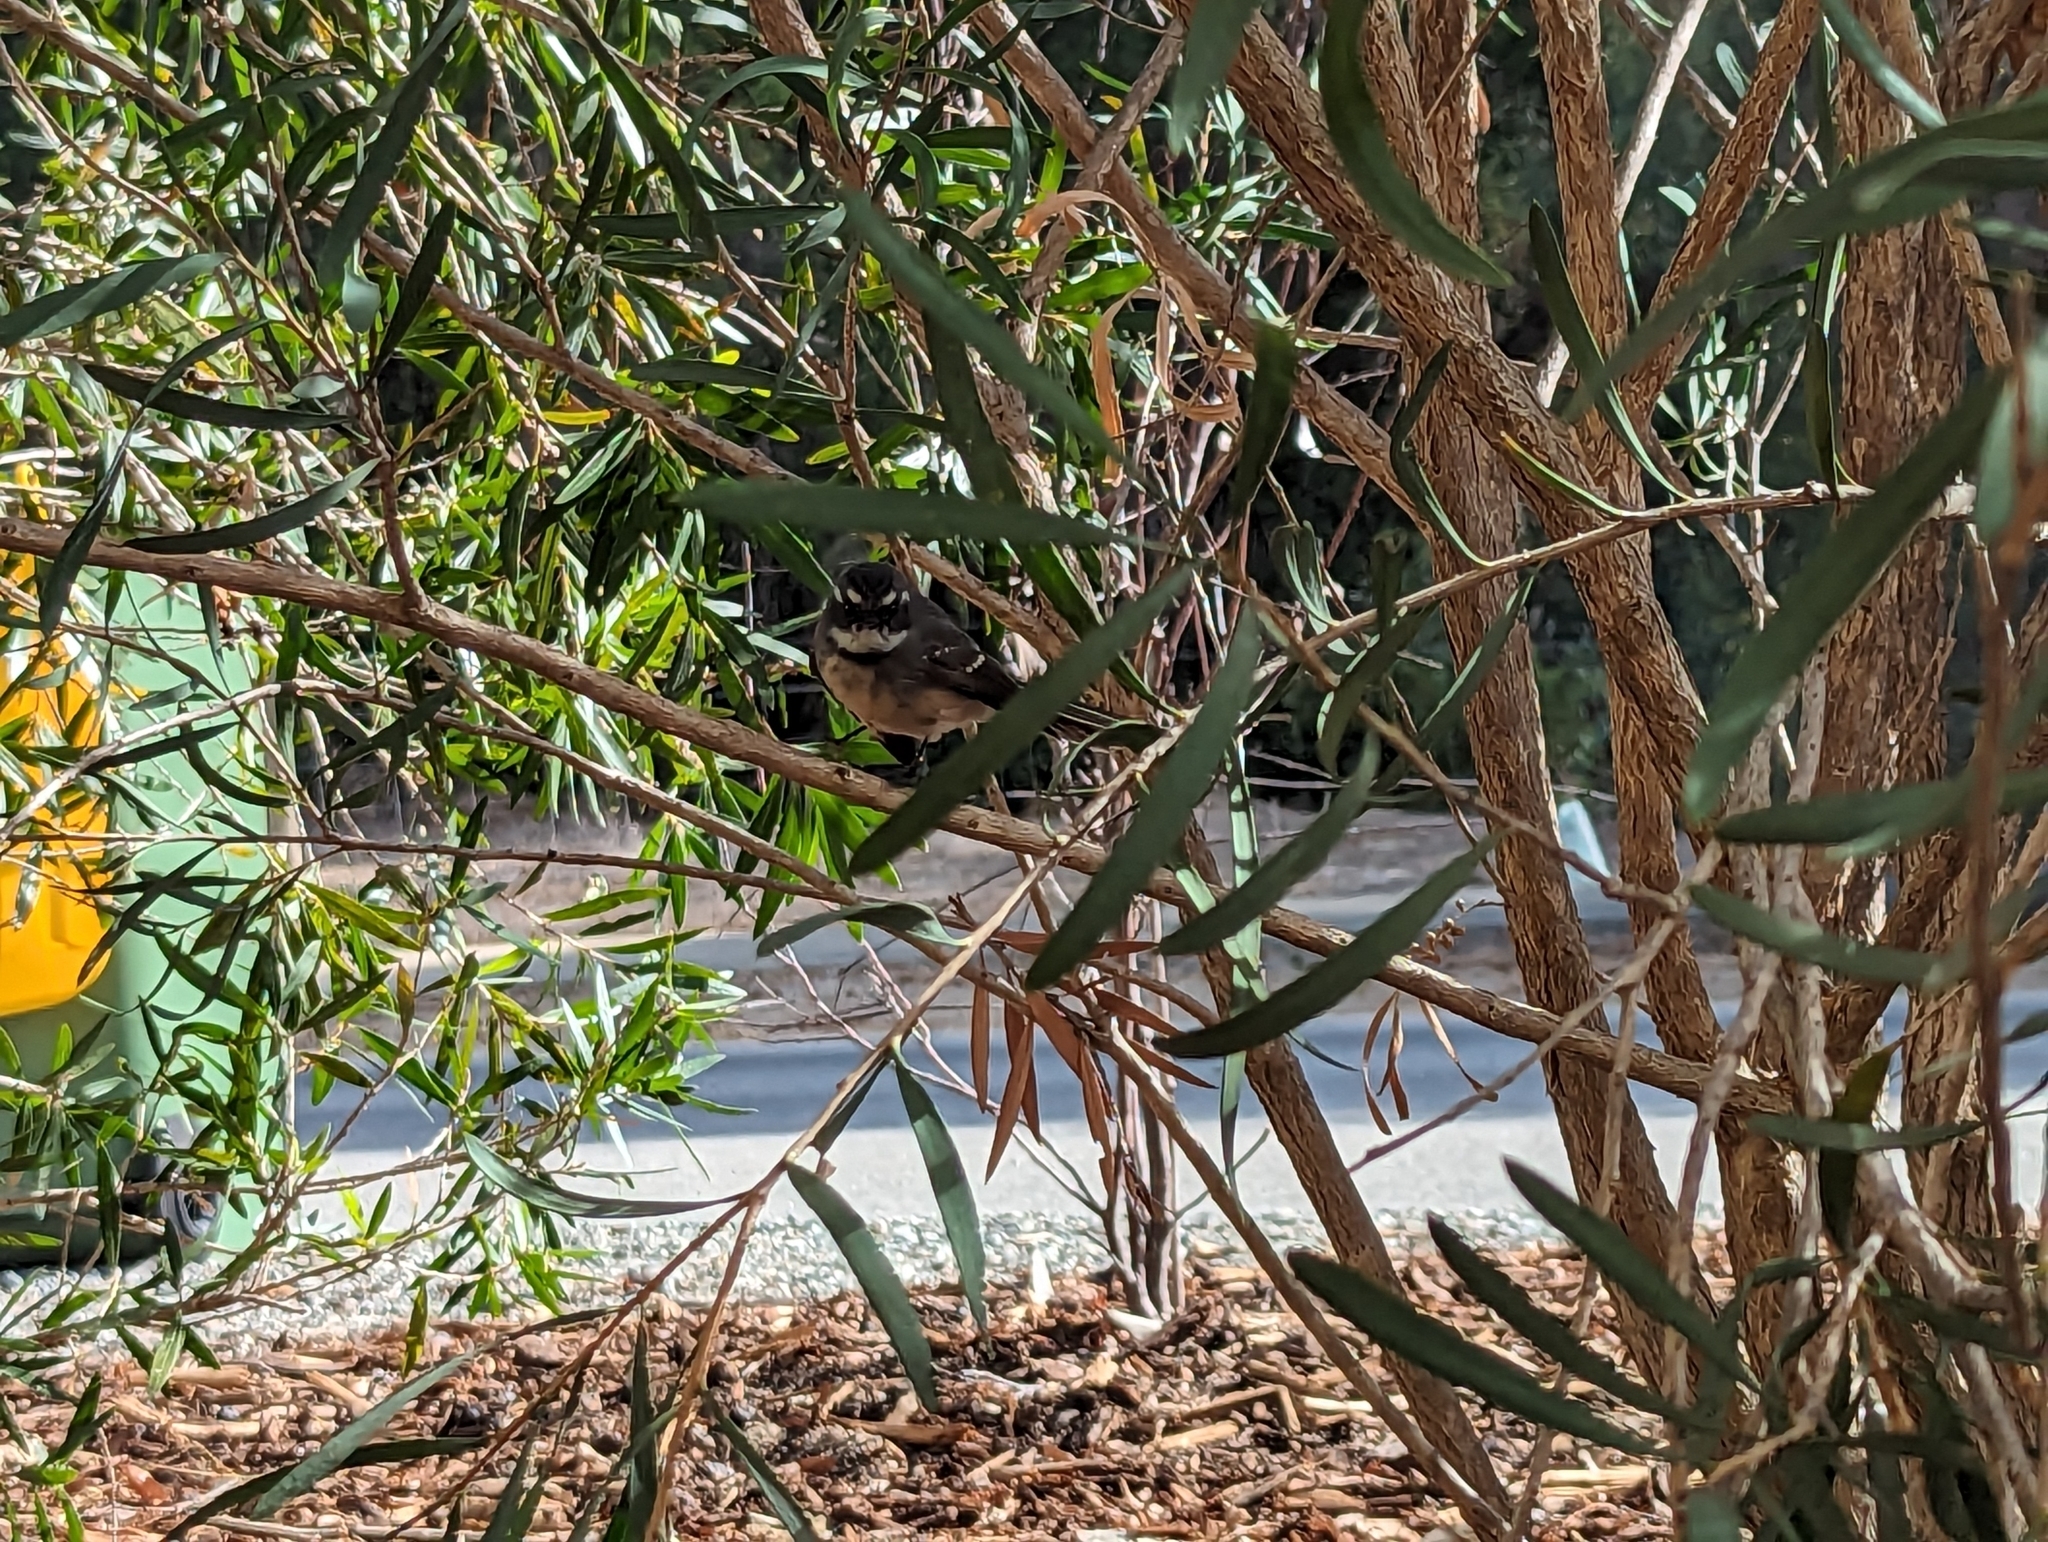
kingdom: Animalia
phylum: Chordata
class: Aves
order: Passeriformes
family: Rhipiduridae
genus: Rhipidura
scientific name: Rhipidura albiscapa
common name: Grey fantail
